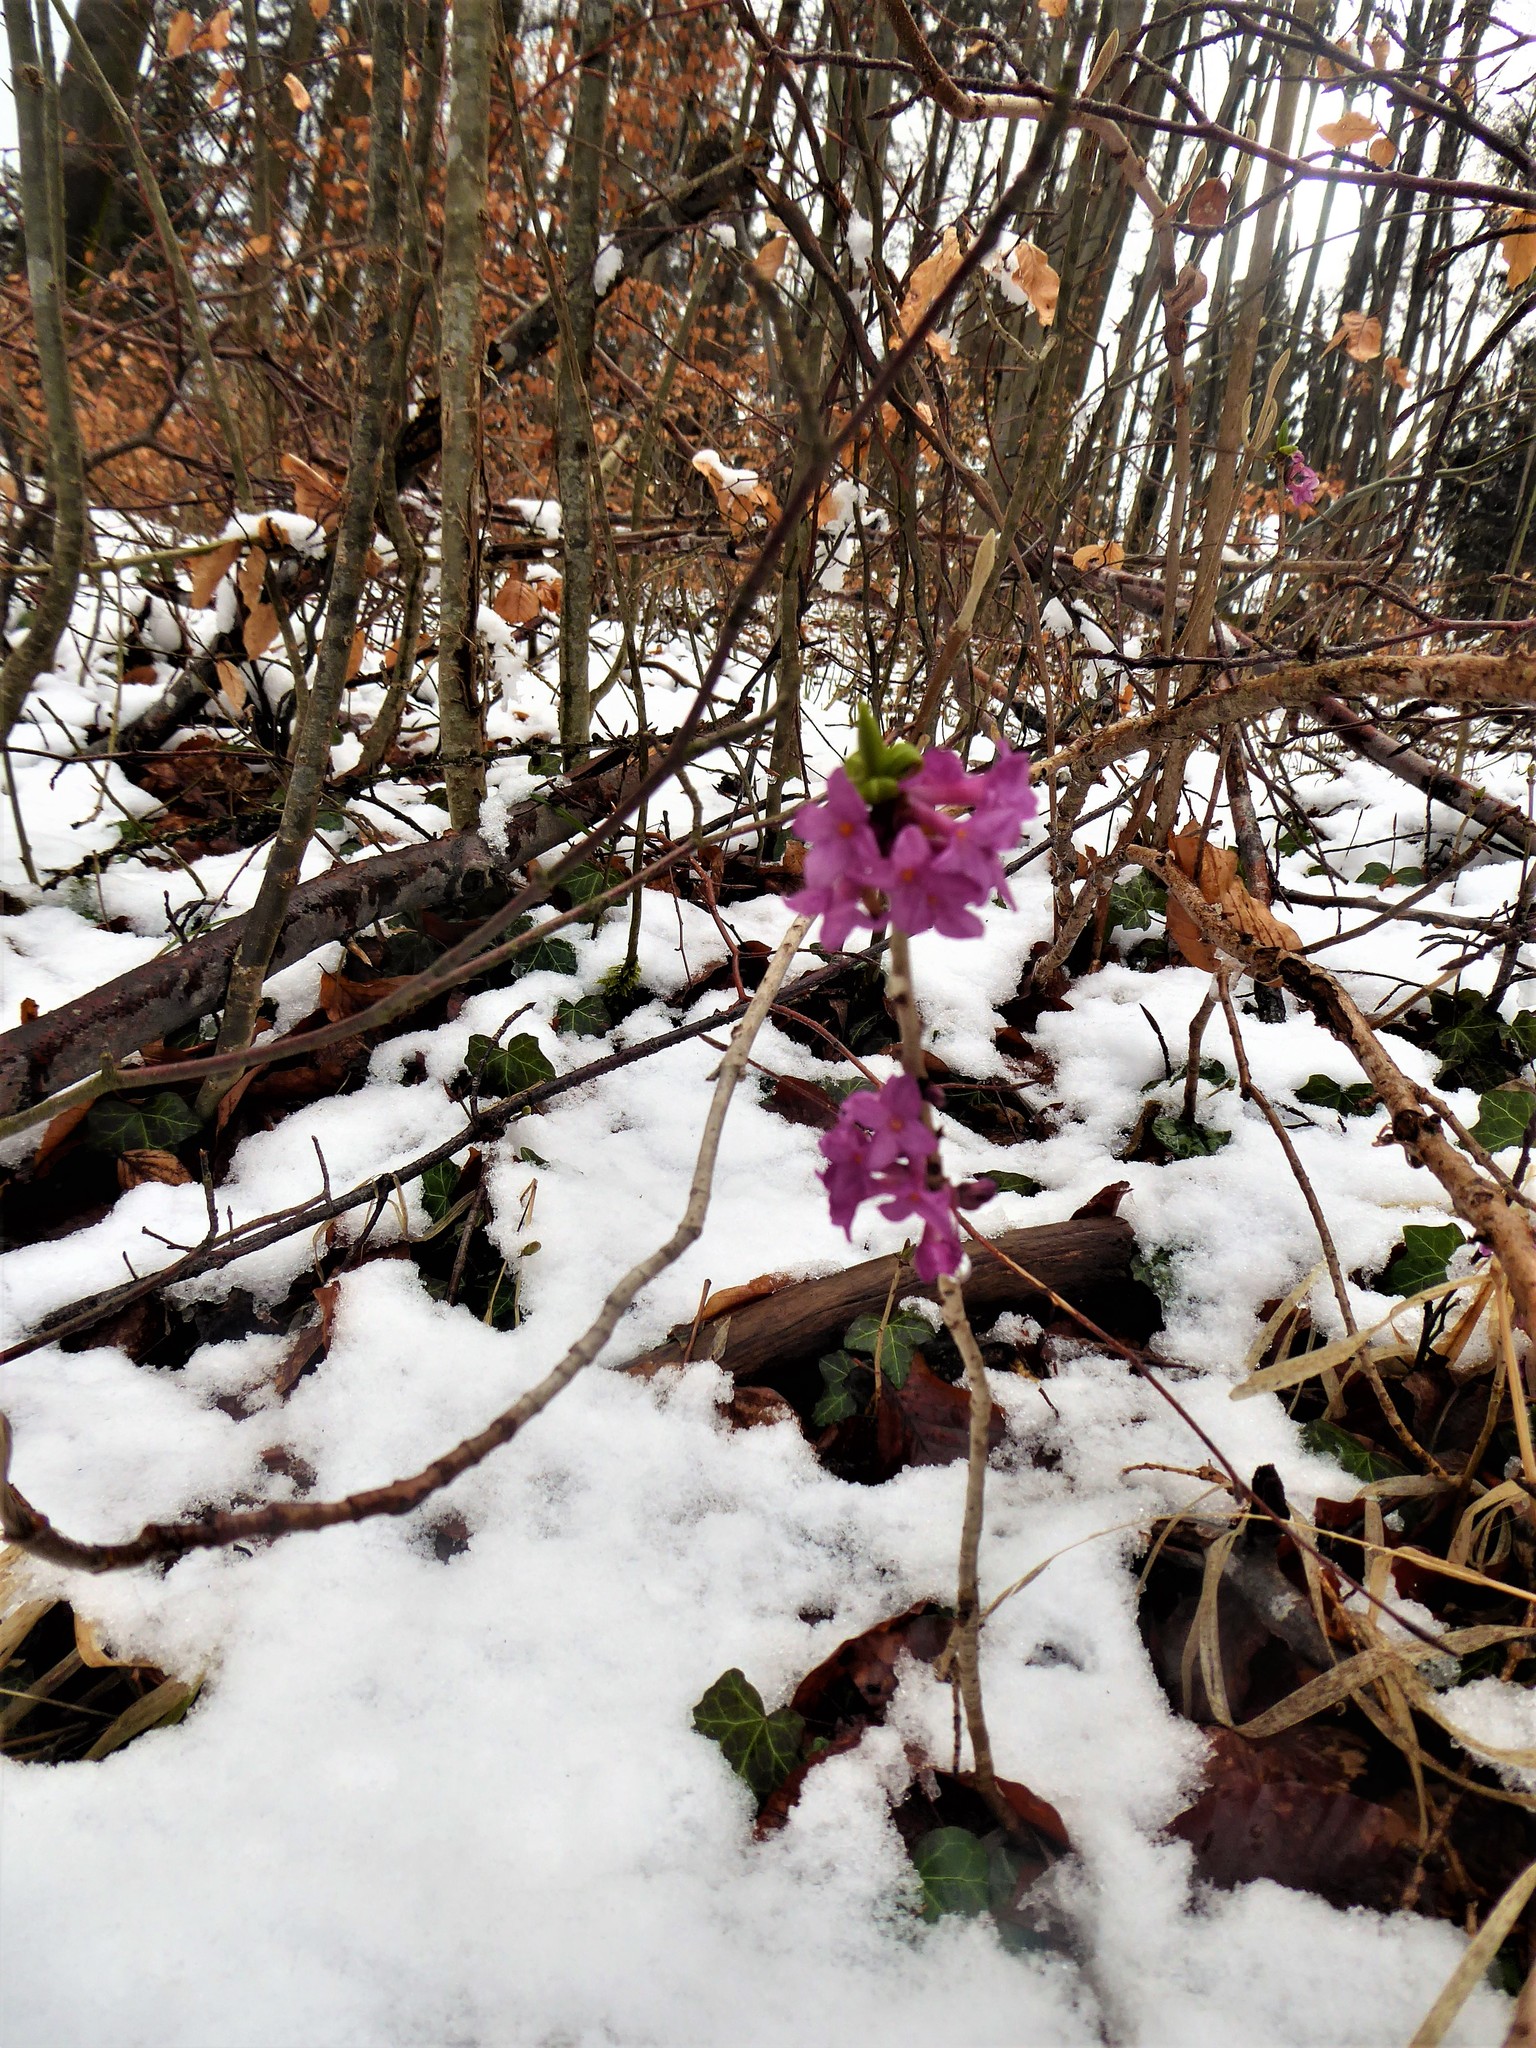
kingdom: Plantae
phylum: Tracheophyta
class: Magnoliopsida
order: Malvales
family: Thymelaeaceae
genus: Daphne
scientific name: Daphne mezereum
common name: Mezereon
